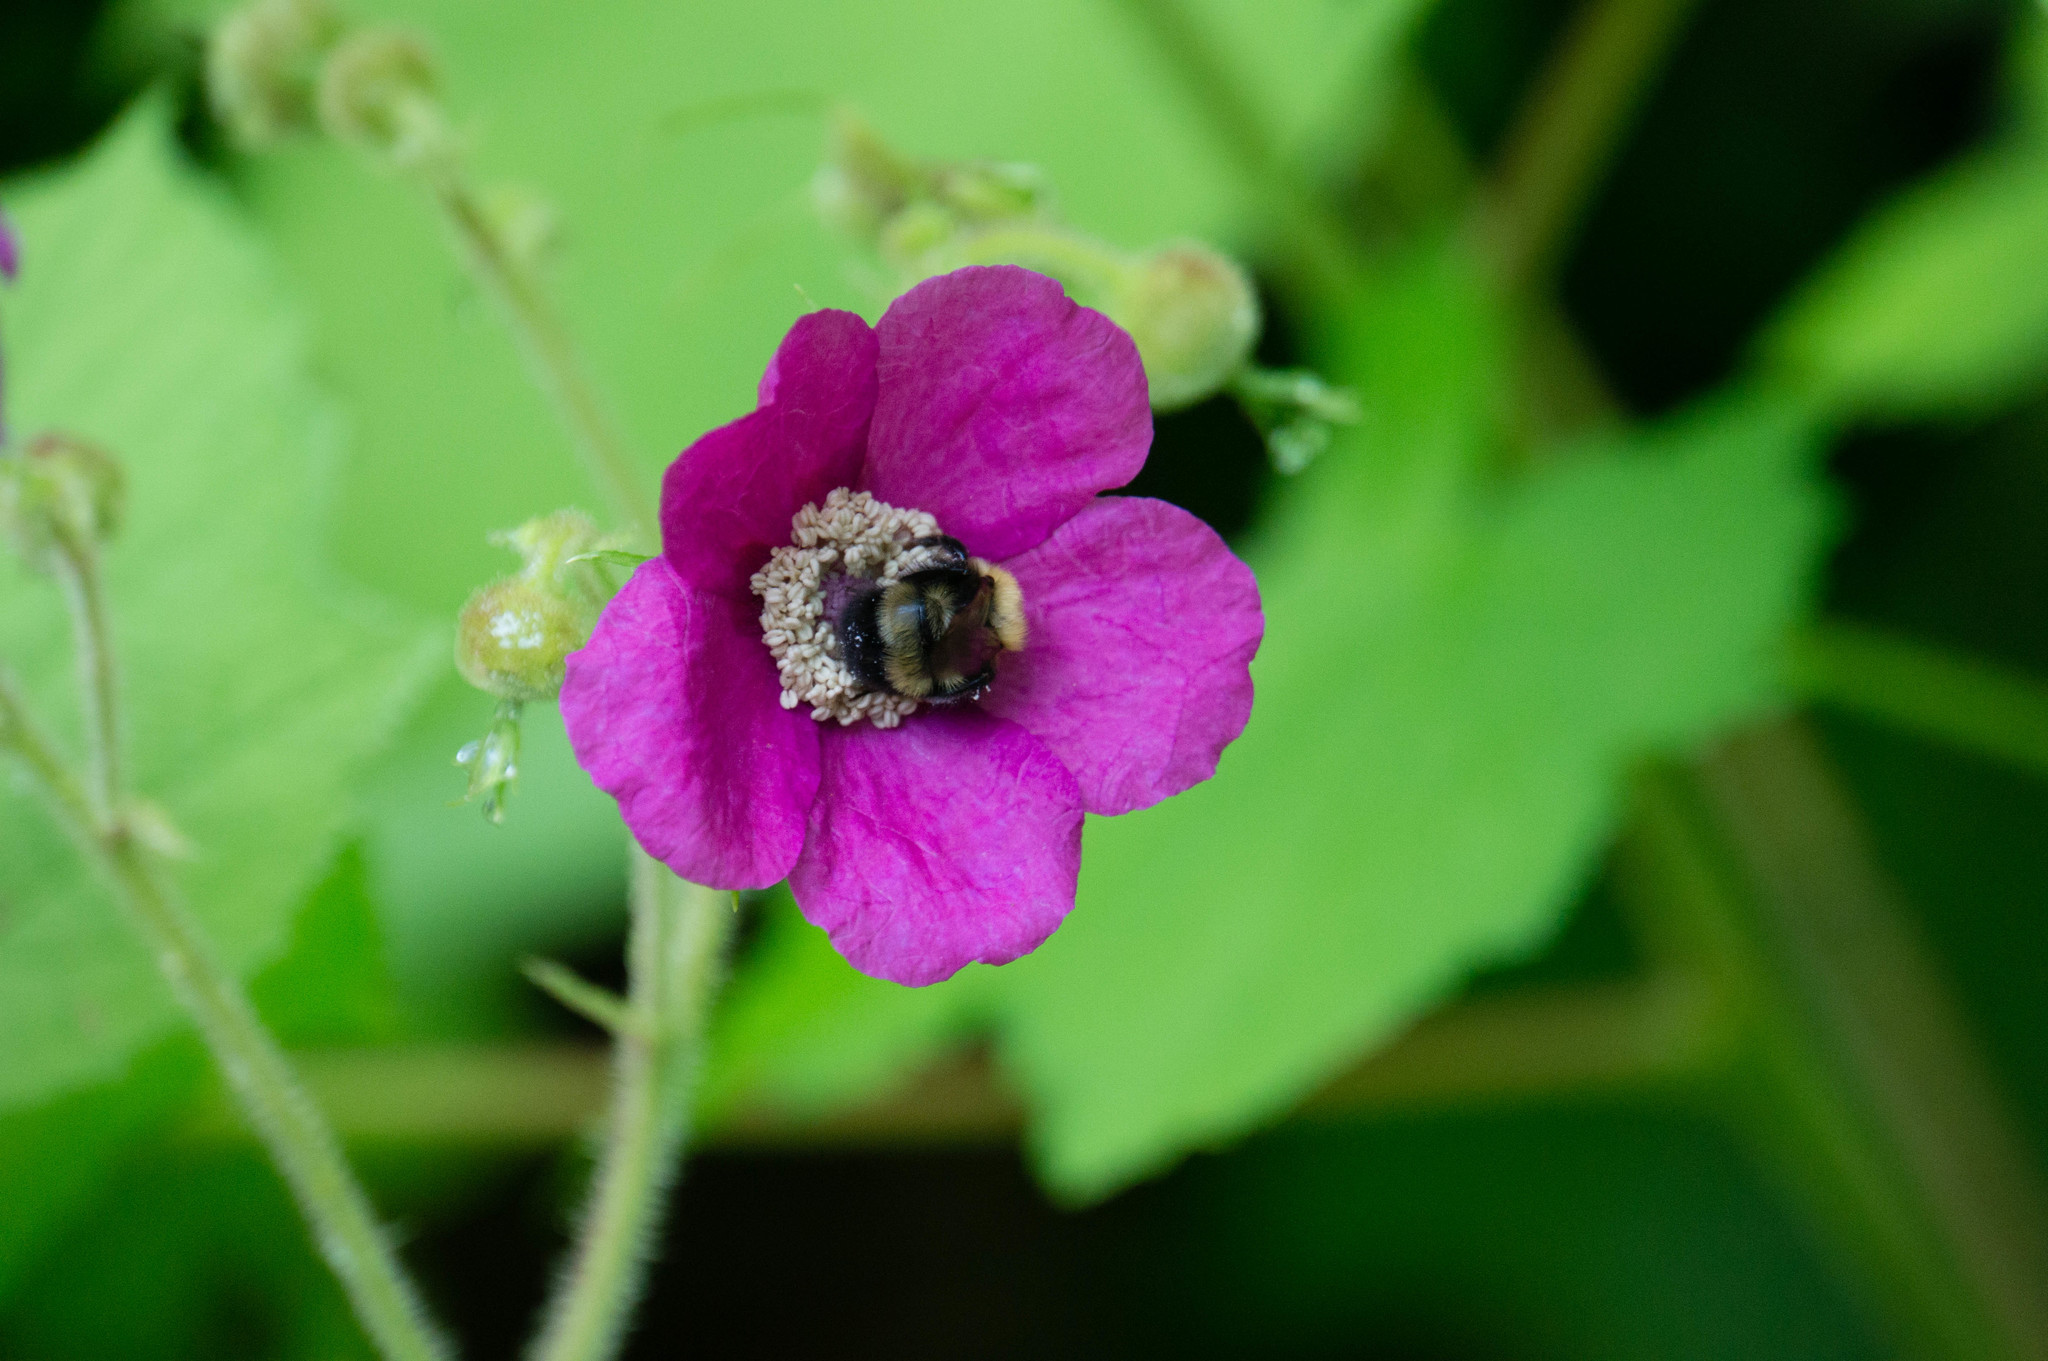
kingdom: Animalia
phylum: Arthropoda
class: Insecta
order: Hymenoptera
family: Apidae
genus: Bombus
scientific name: Bombus perplexus
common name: Confusing bumble bee
